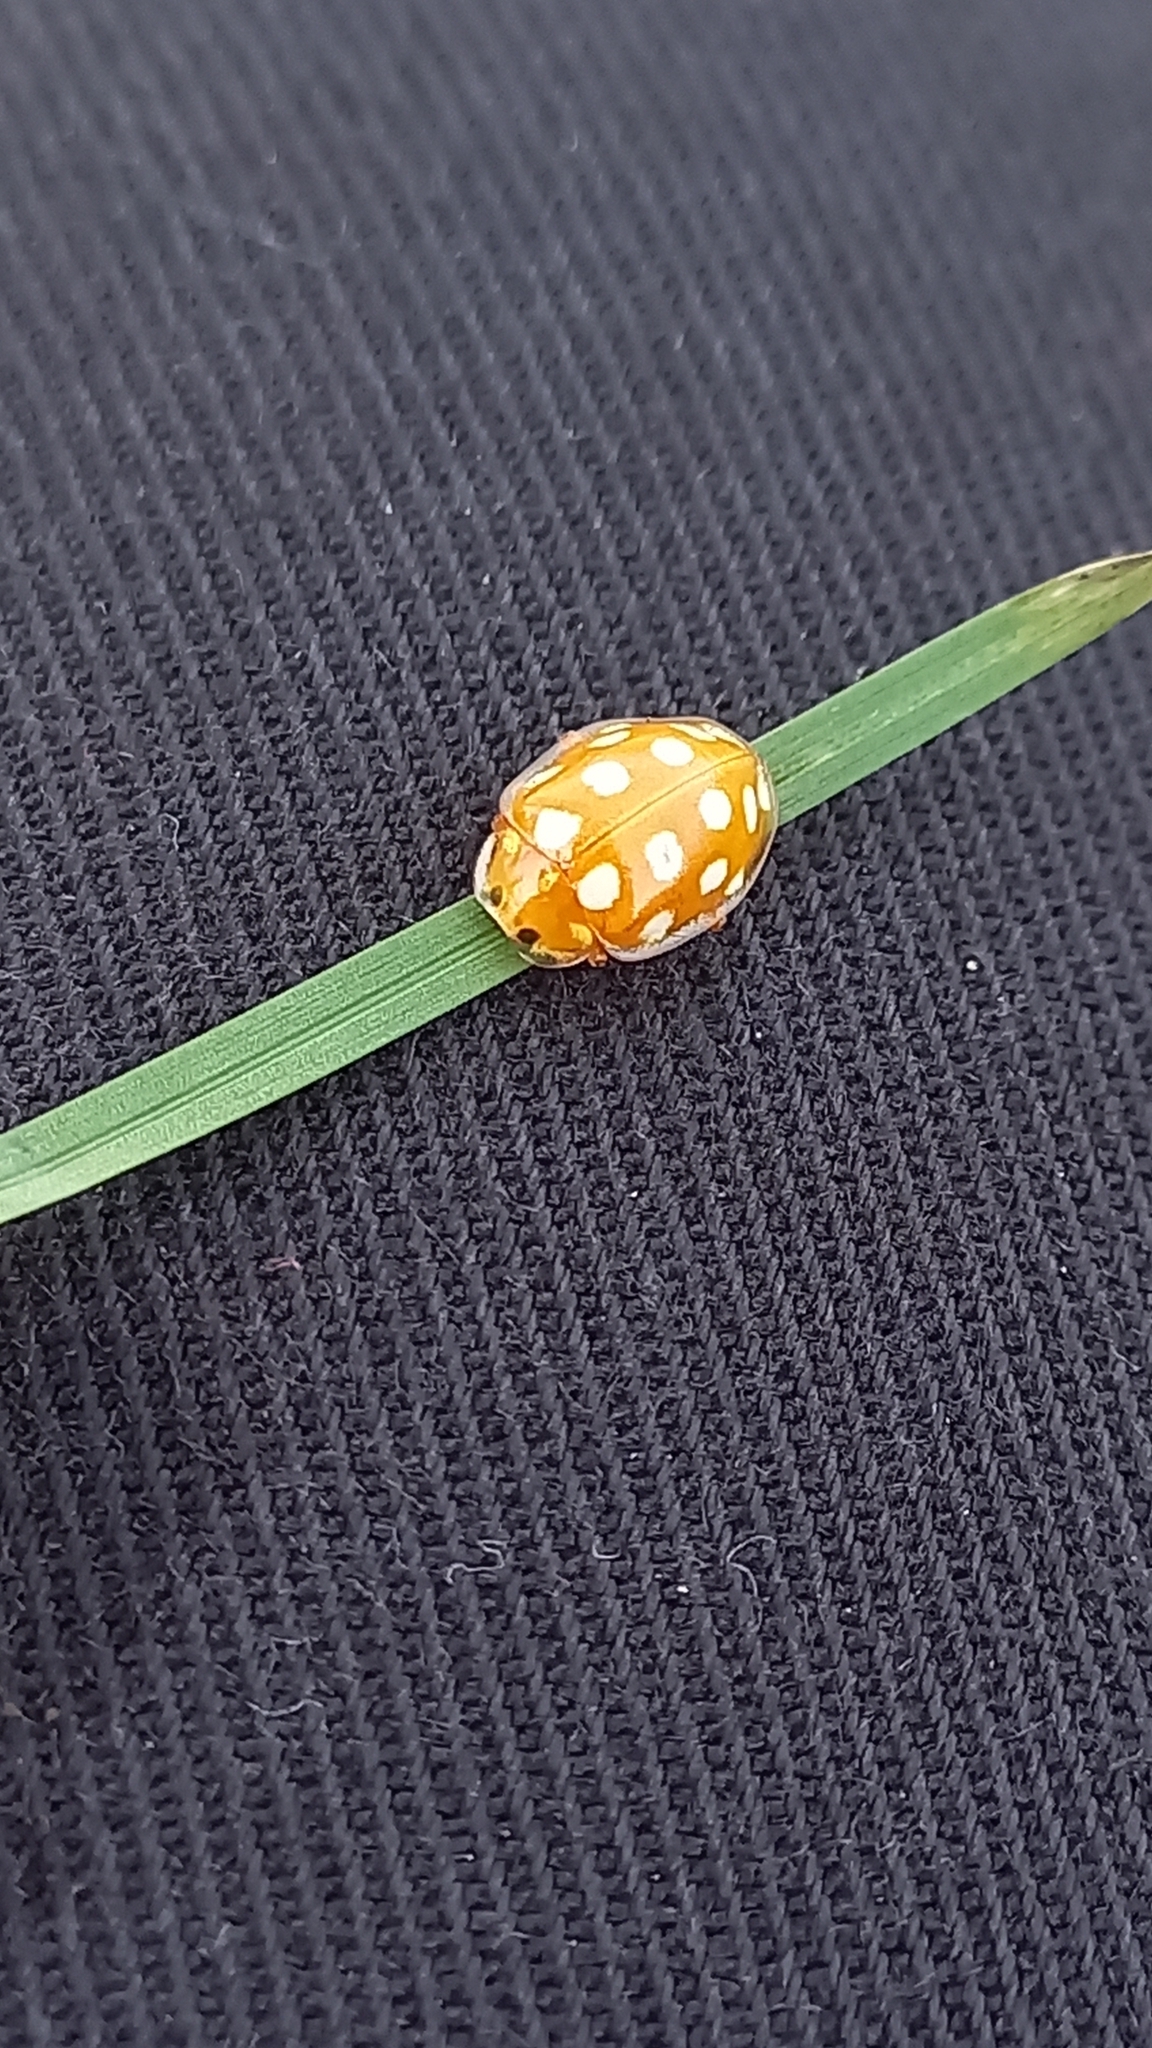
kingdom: Animalia
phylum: Arthropoda
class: Insecta
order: Coleoptera
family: Coccinellidae
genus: Halyzia
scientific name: Halyzia sedecimguttata
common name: Orange ladybird
